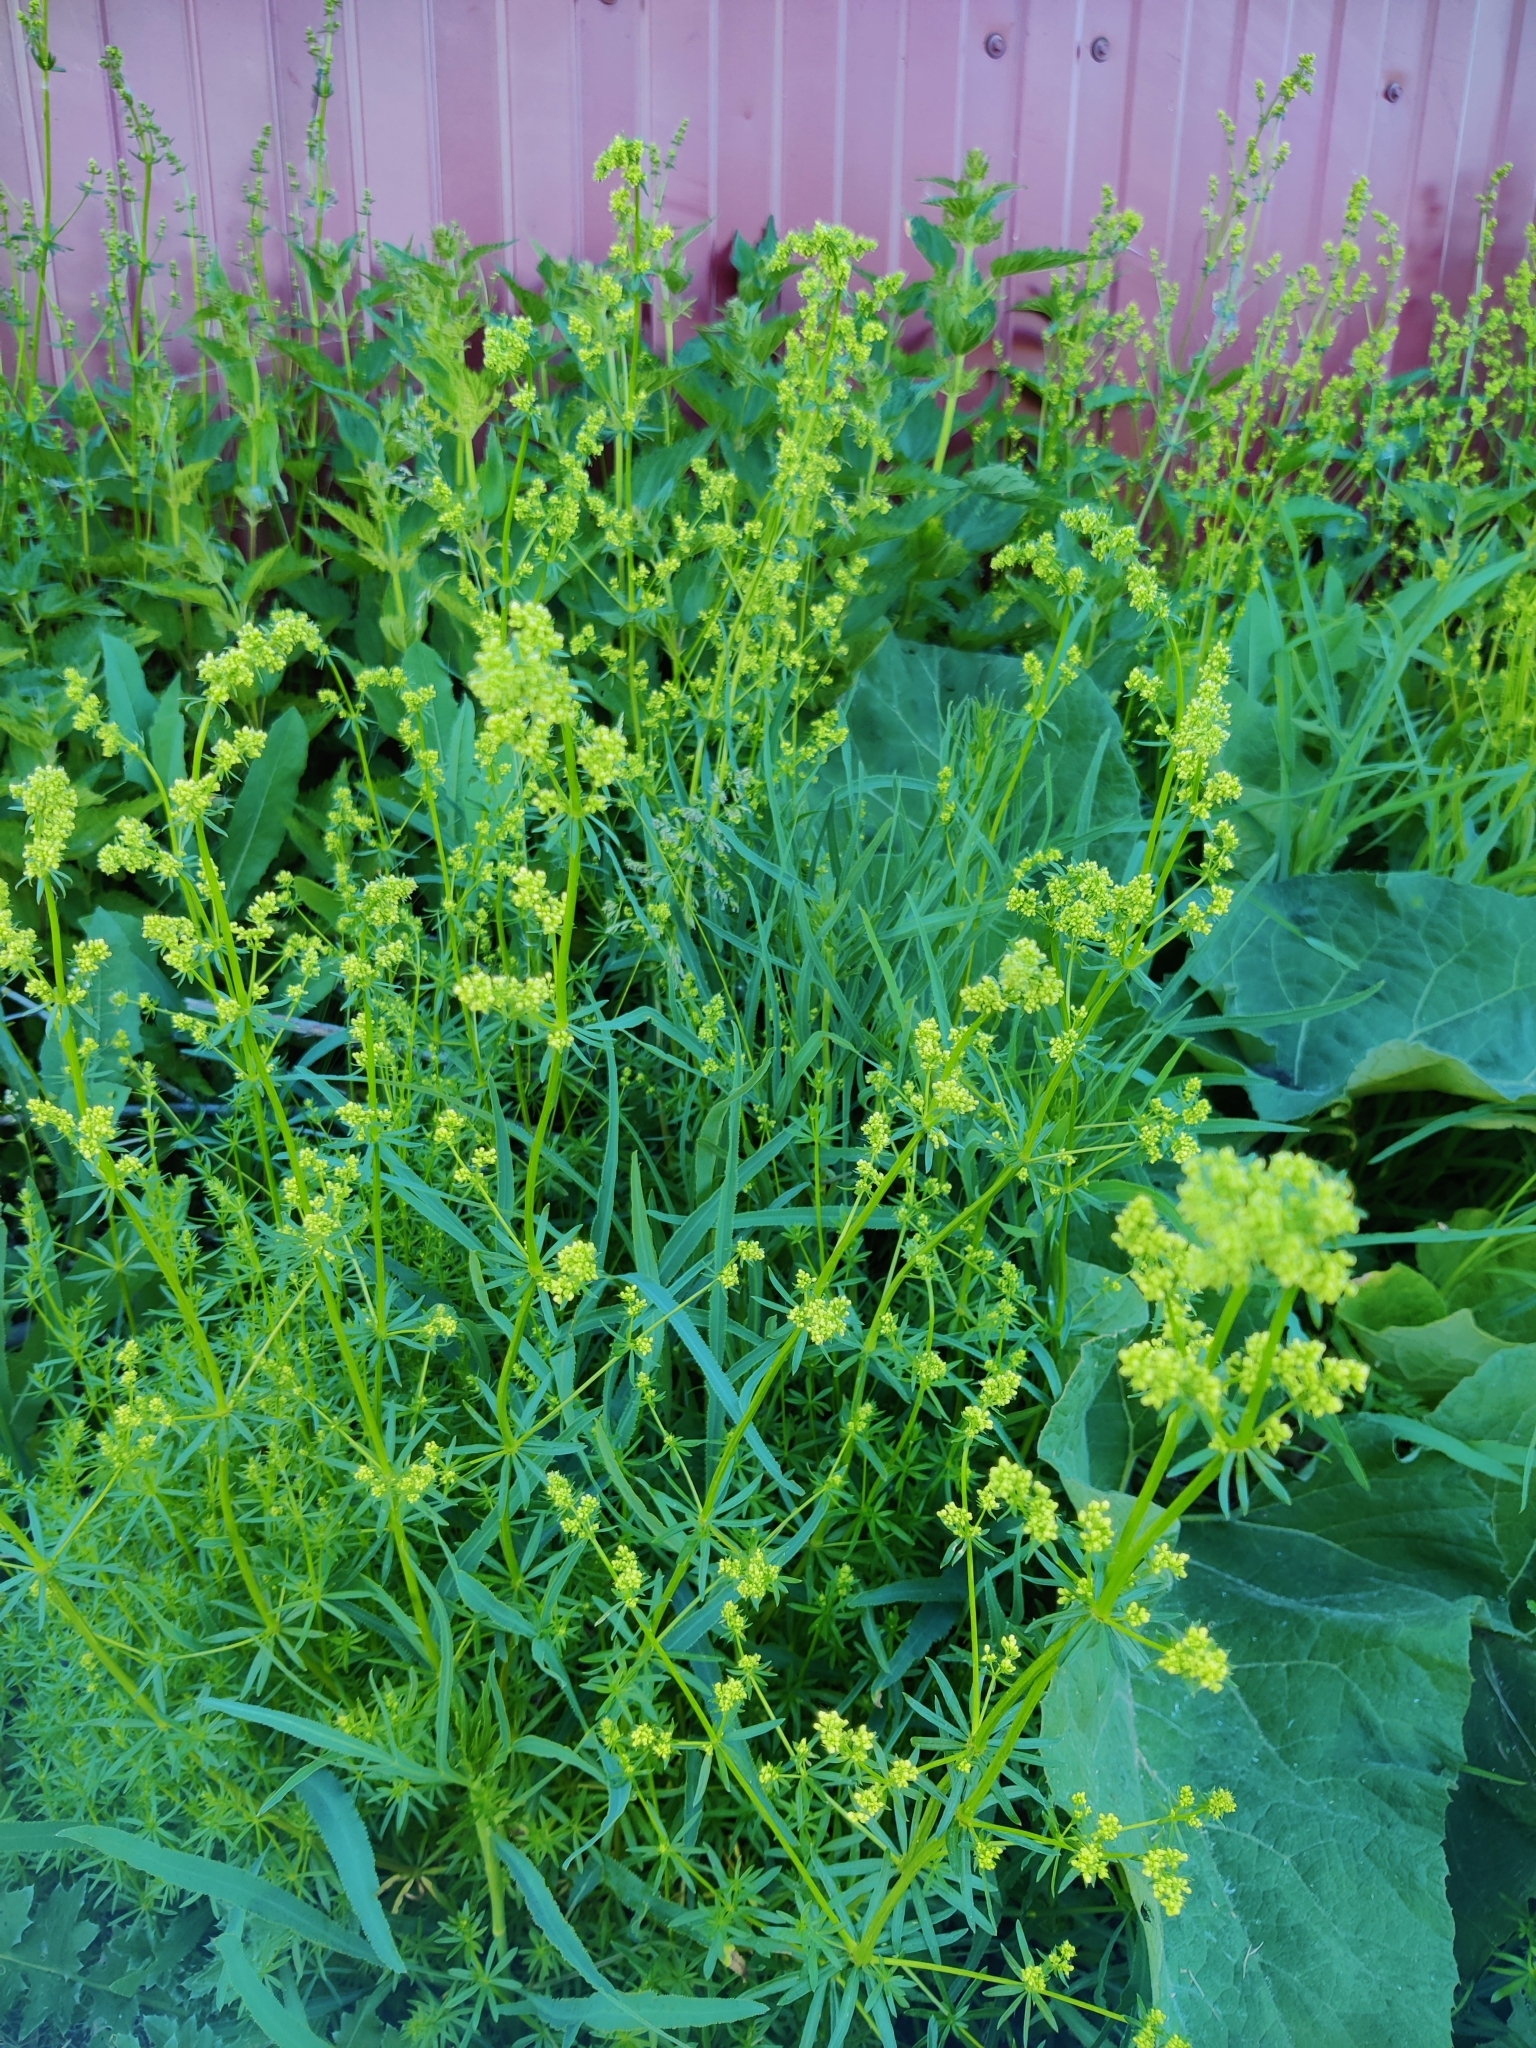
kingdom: Plantae
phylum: Tracheophyta
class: Magnoliopsida
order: Gentianales
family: Rubiaceae
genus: Galium
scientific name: Galium verum
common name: Lady's bedstraw
